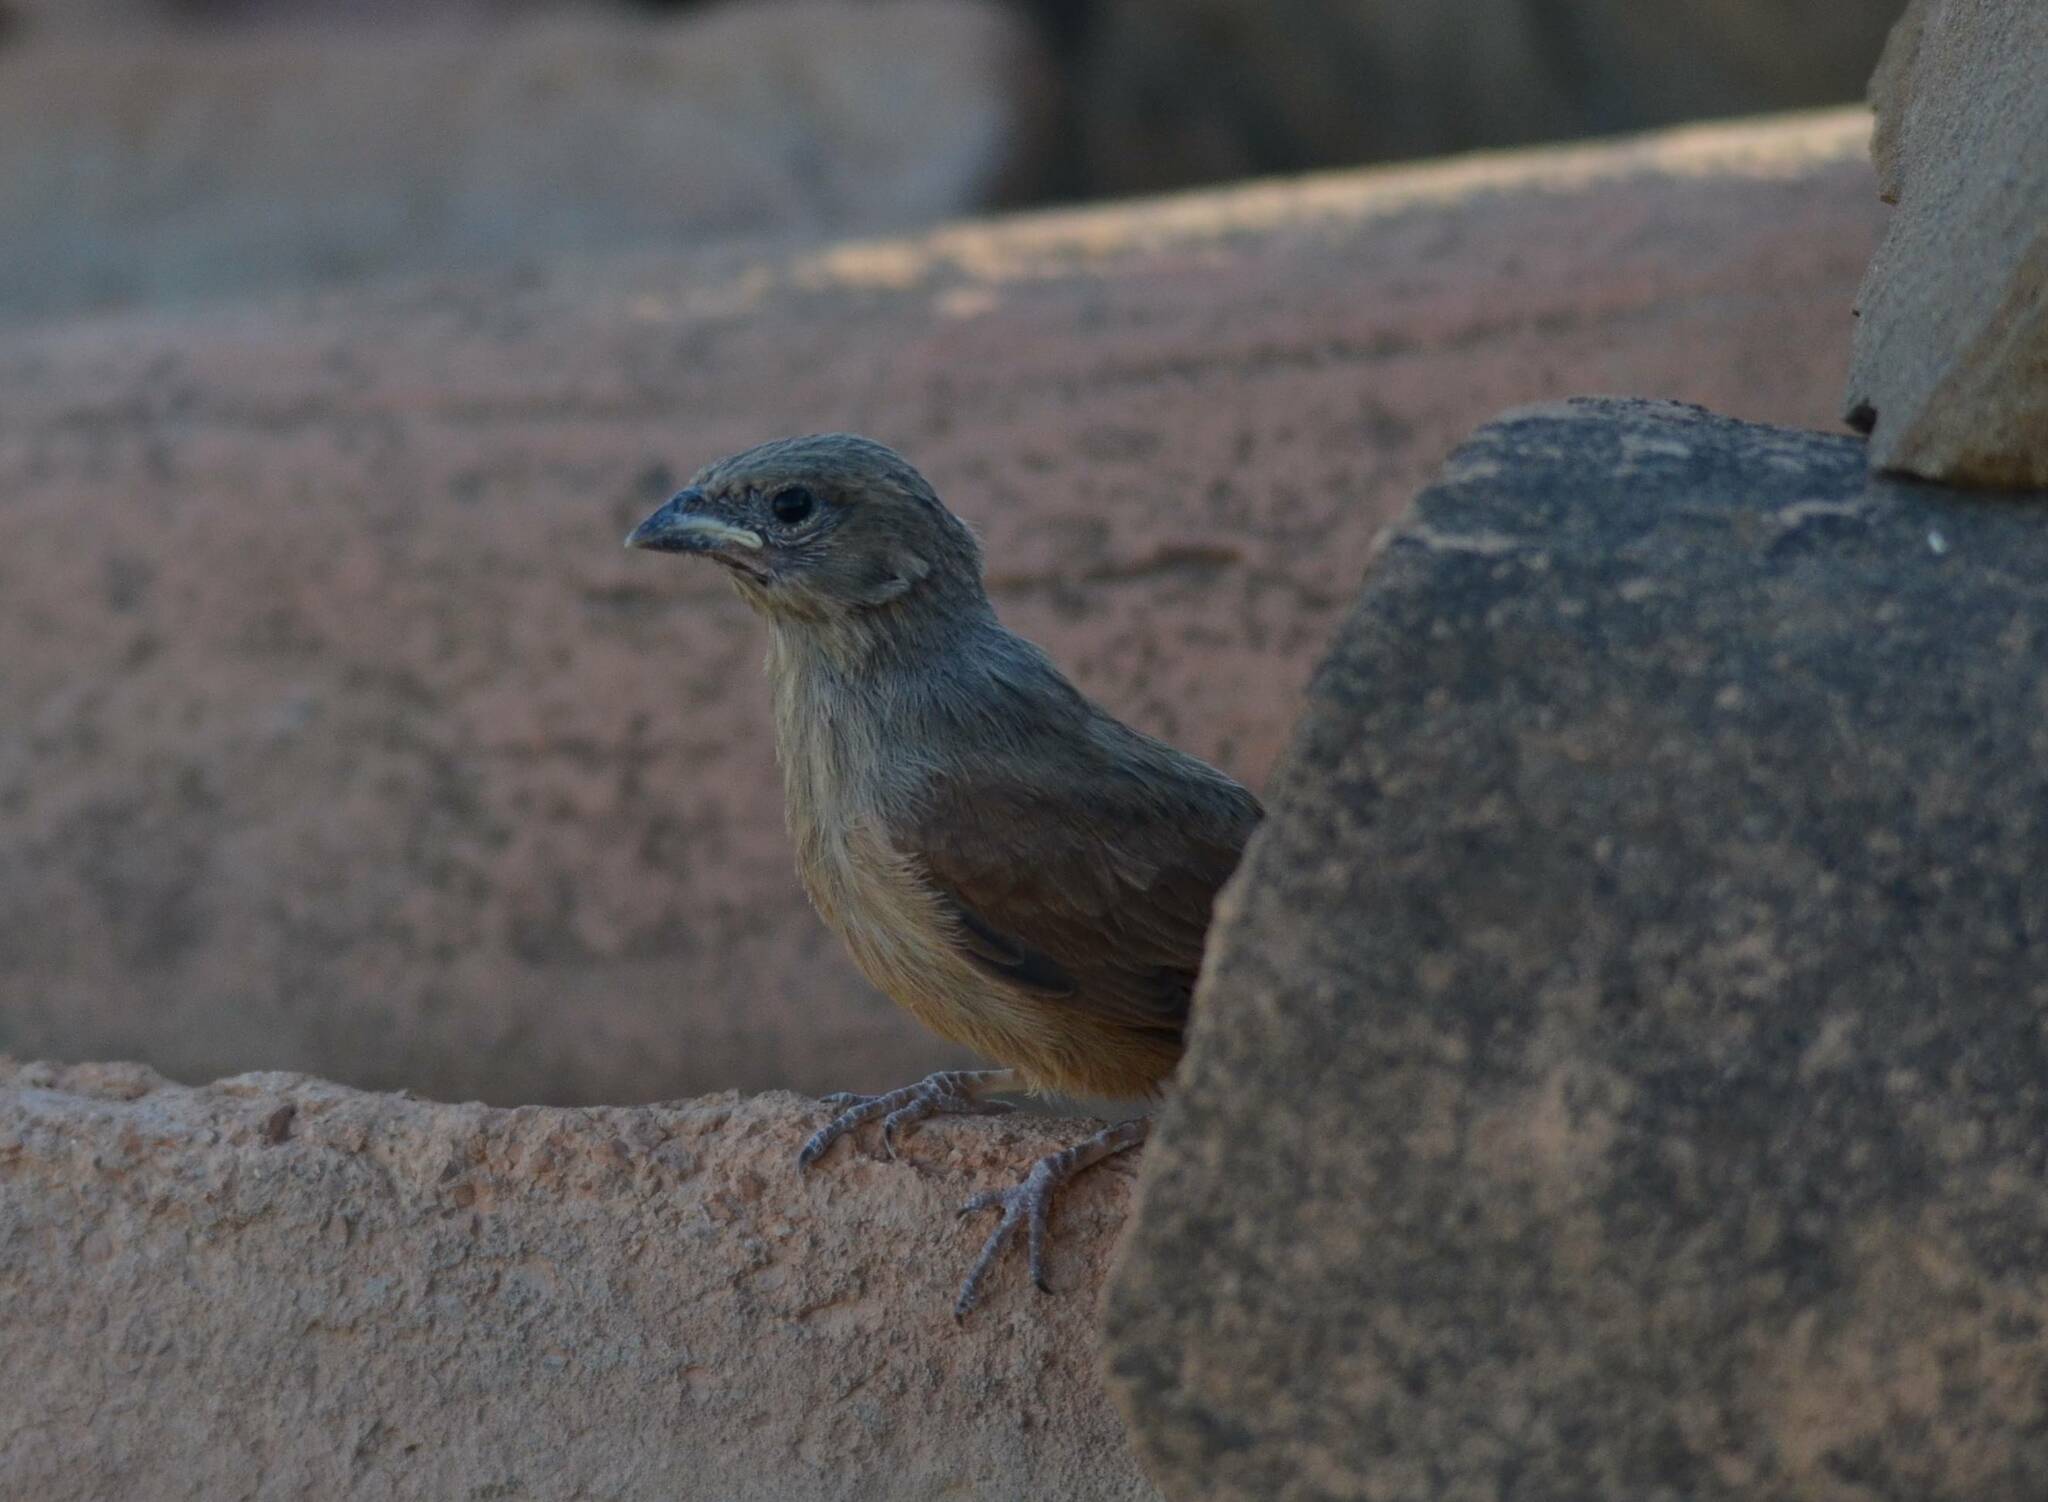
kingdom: Animalia
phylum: Chordata
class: Aves
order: Passeriformes
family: Emberizidae
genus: Emberiza
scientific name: Emberiza sahari
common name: House bunting
